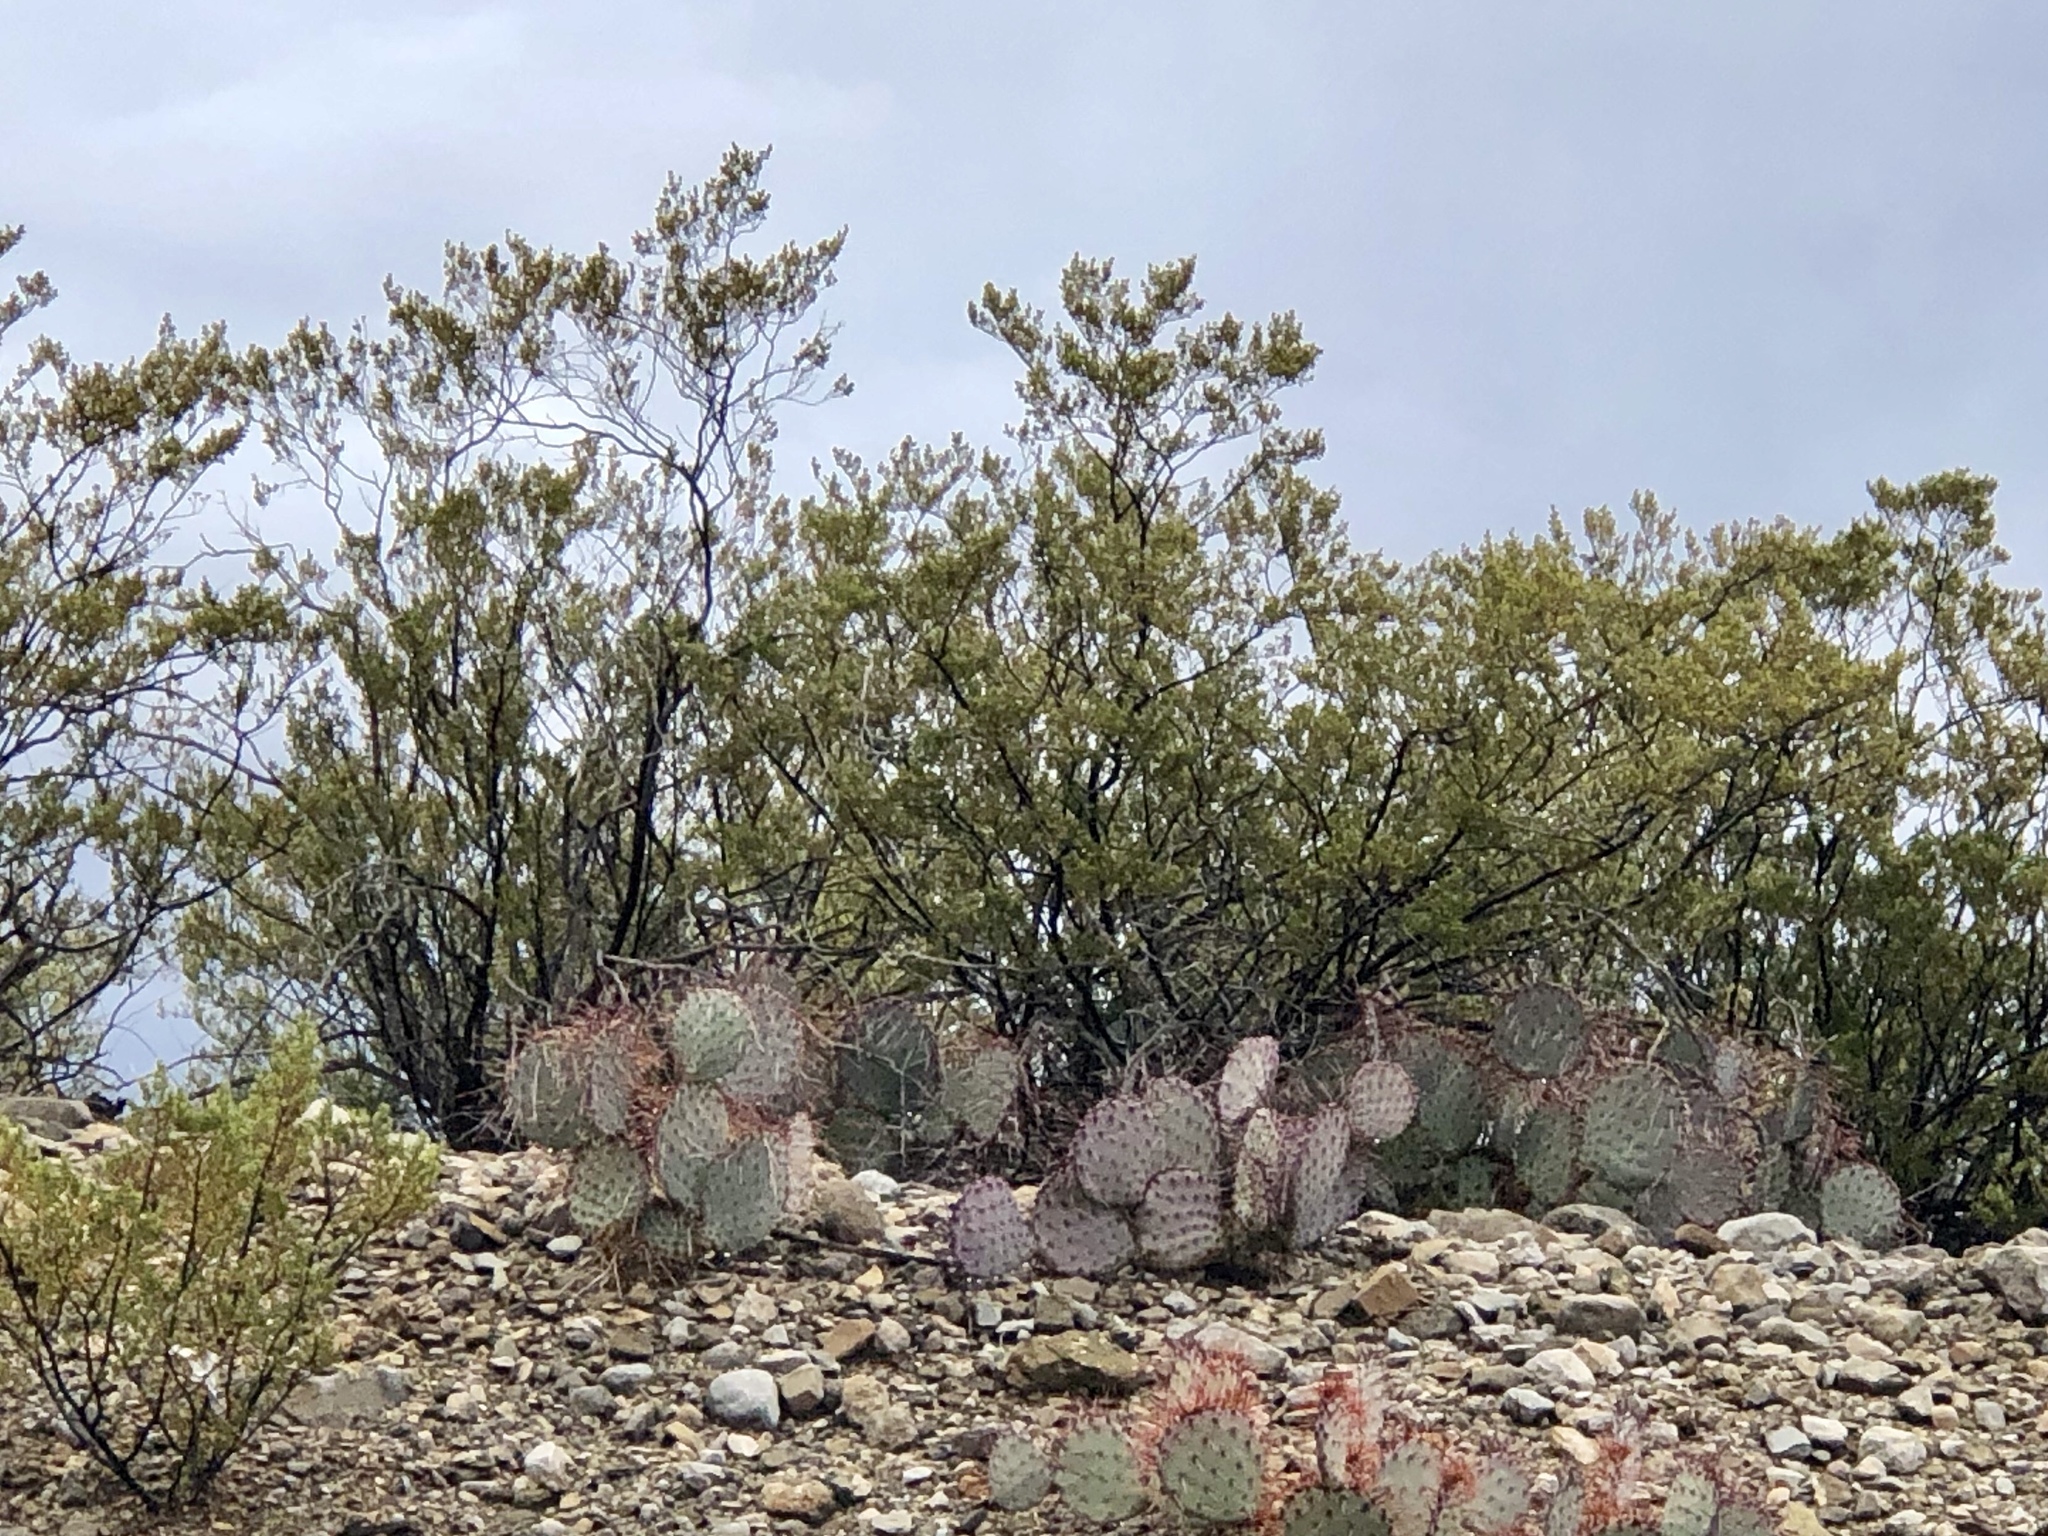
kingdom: Plantae
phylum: Tracheophyta
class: Magnoliopsida
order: Zygophyllales
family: Zygophyllaceae
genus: Larrea
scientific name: Larrea tridentata
